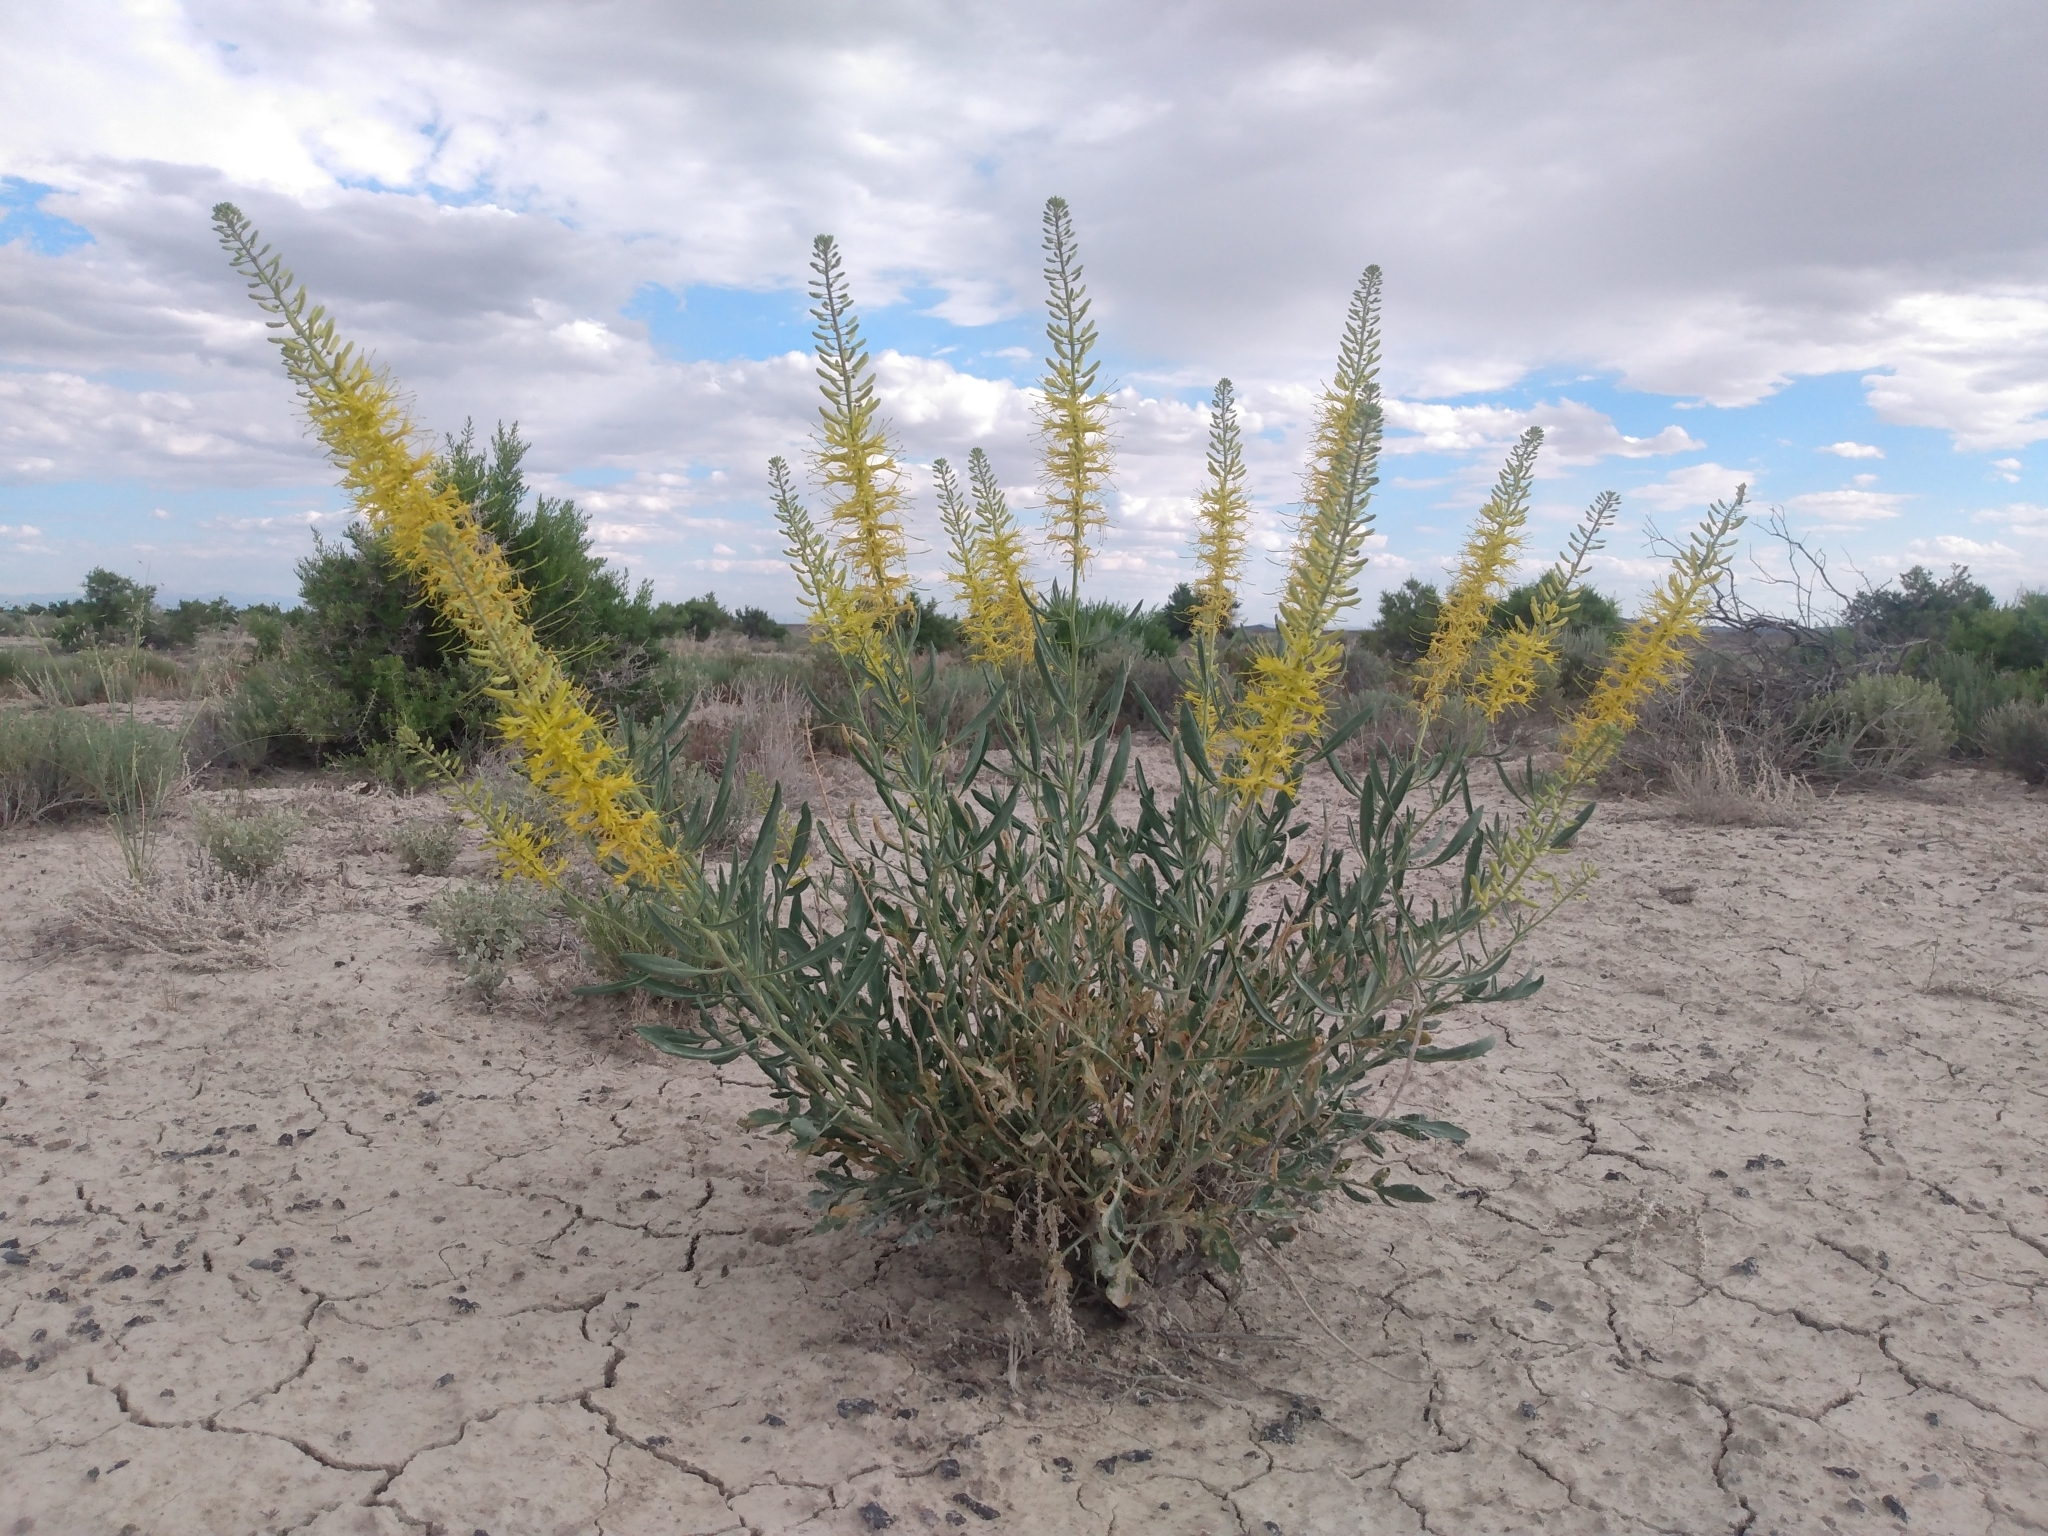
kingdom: Plantae
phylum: Tracheophyta
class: Magnoliopsida
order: Brassicales
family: Brassicaceae
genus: Stanleya
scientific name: Stanleya pinnata
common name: Prince's-plume
